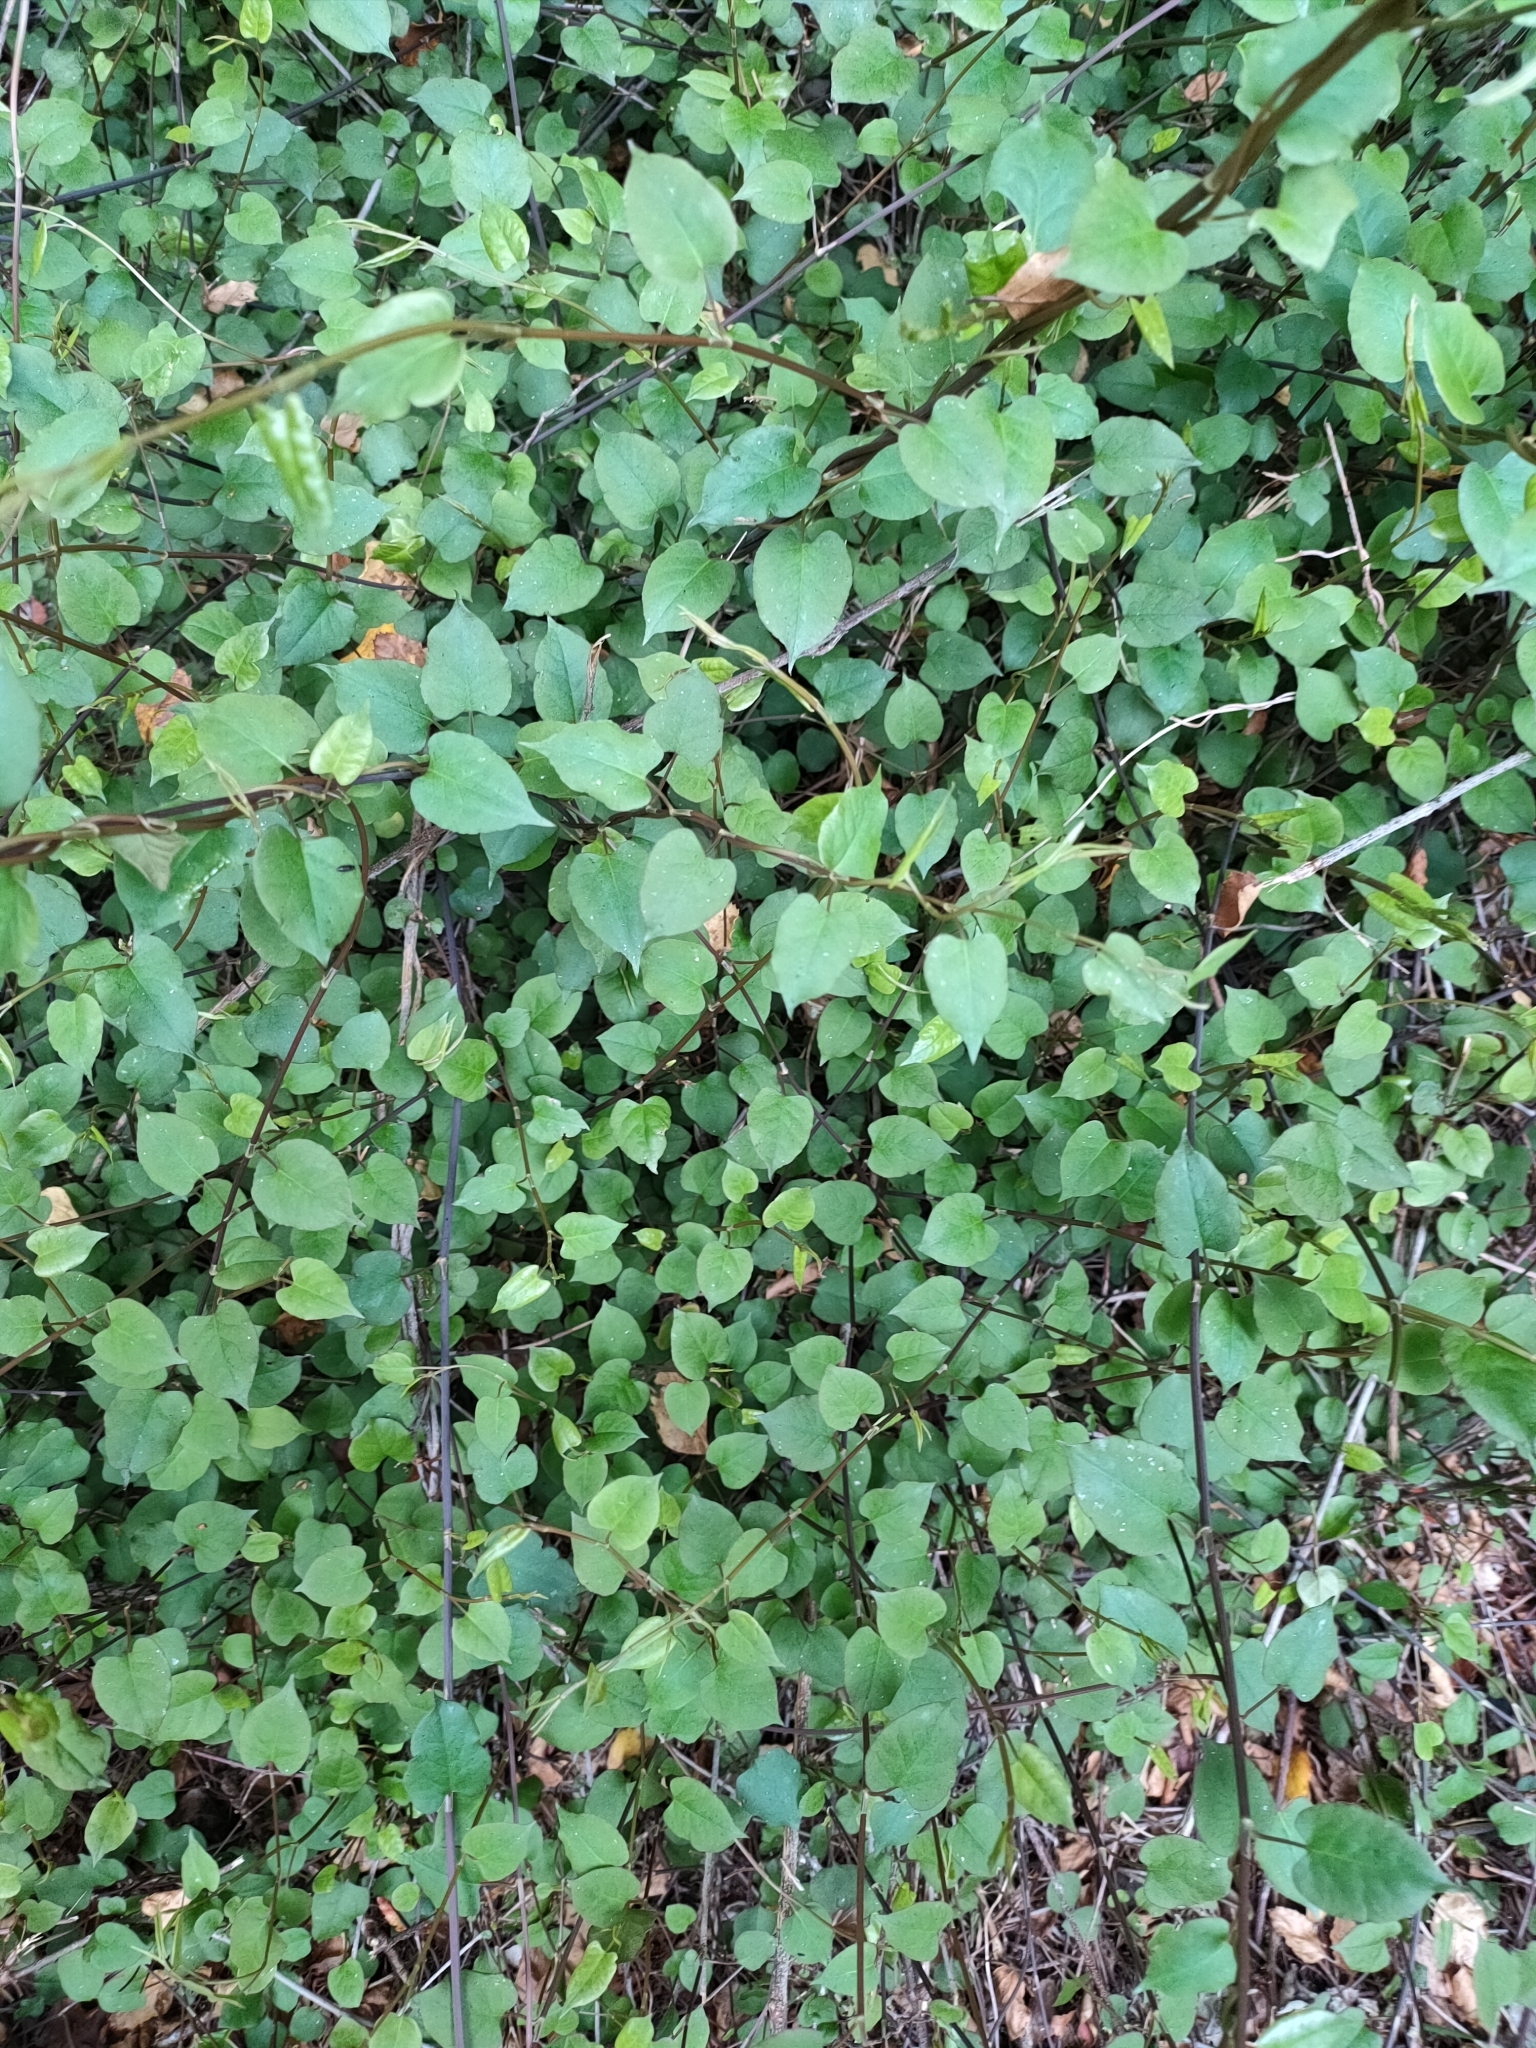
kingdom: Plantae
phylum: Tracheophyta
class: Magnoliopsida
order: Caryophyllales
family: Polygonaceae
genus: Muehlenbeckia
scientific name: Muehlenbeckia australis
